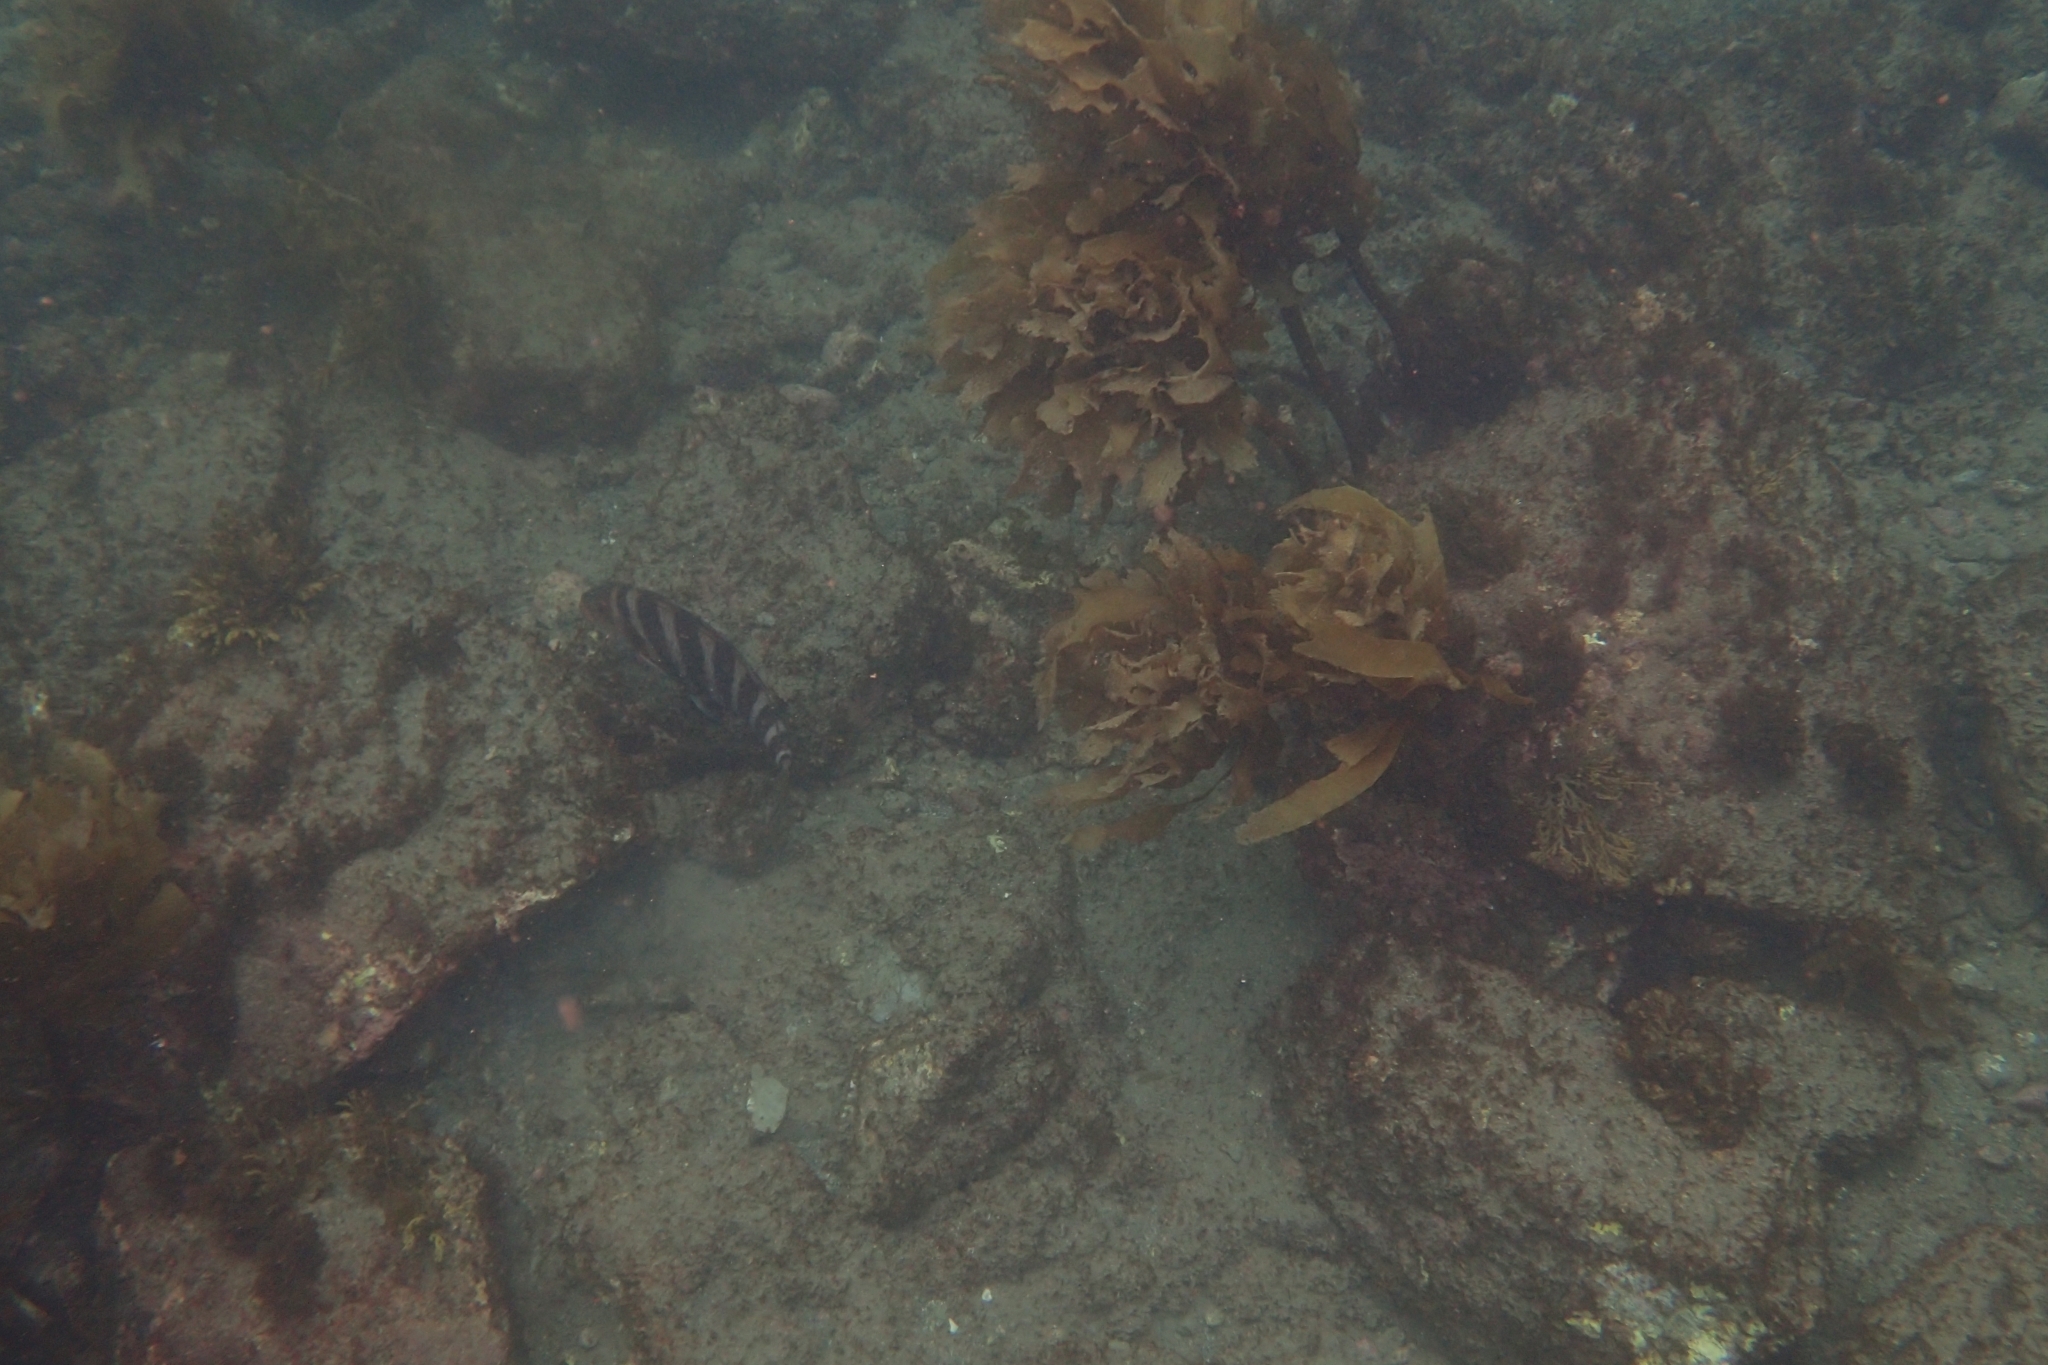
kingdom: Animalia
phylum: Chordata
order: Perciformes
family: Cheilodactylidae
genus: Cheilodactylus
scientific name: Cheilodactylus spectabilis
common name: Red moki
